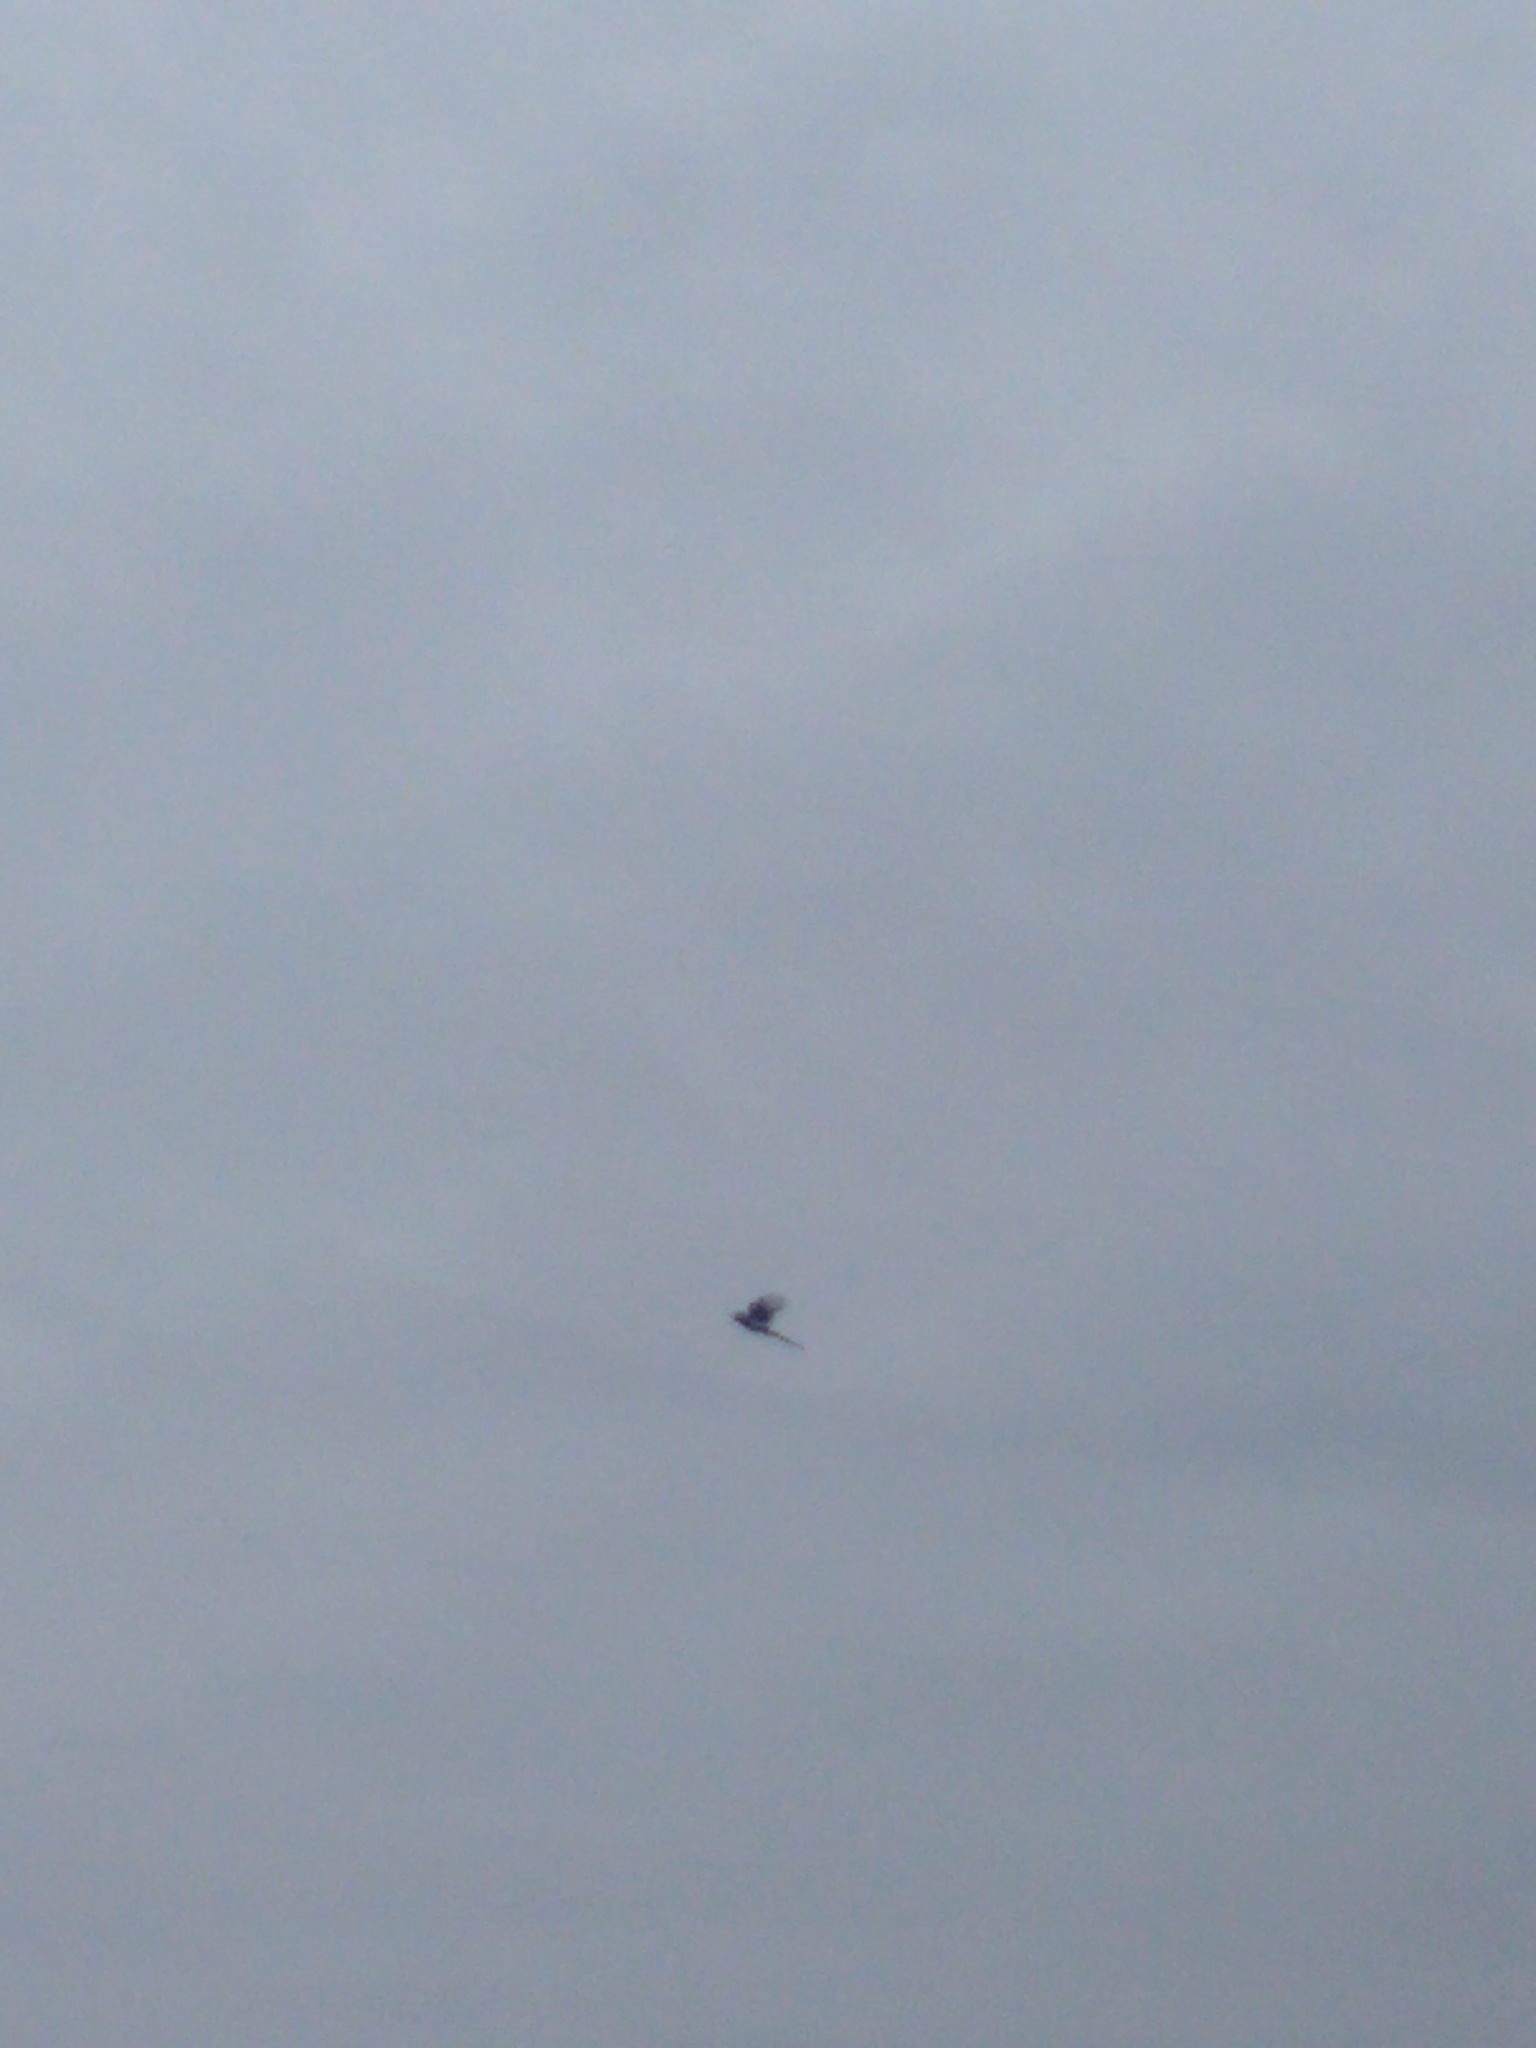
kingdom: Animalia
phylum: Chordata
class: Aves
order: Passeriformes
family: Corvidae
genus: Pica
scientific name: Pica hudsonia
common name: Black-billed magpie
